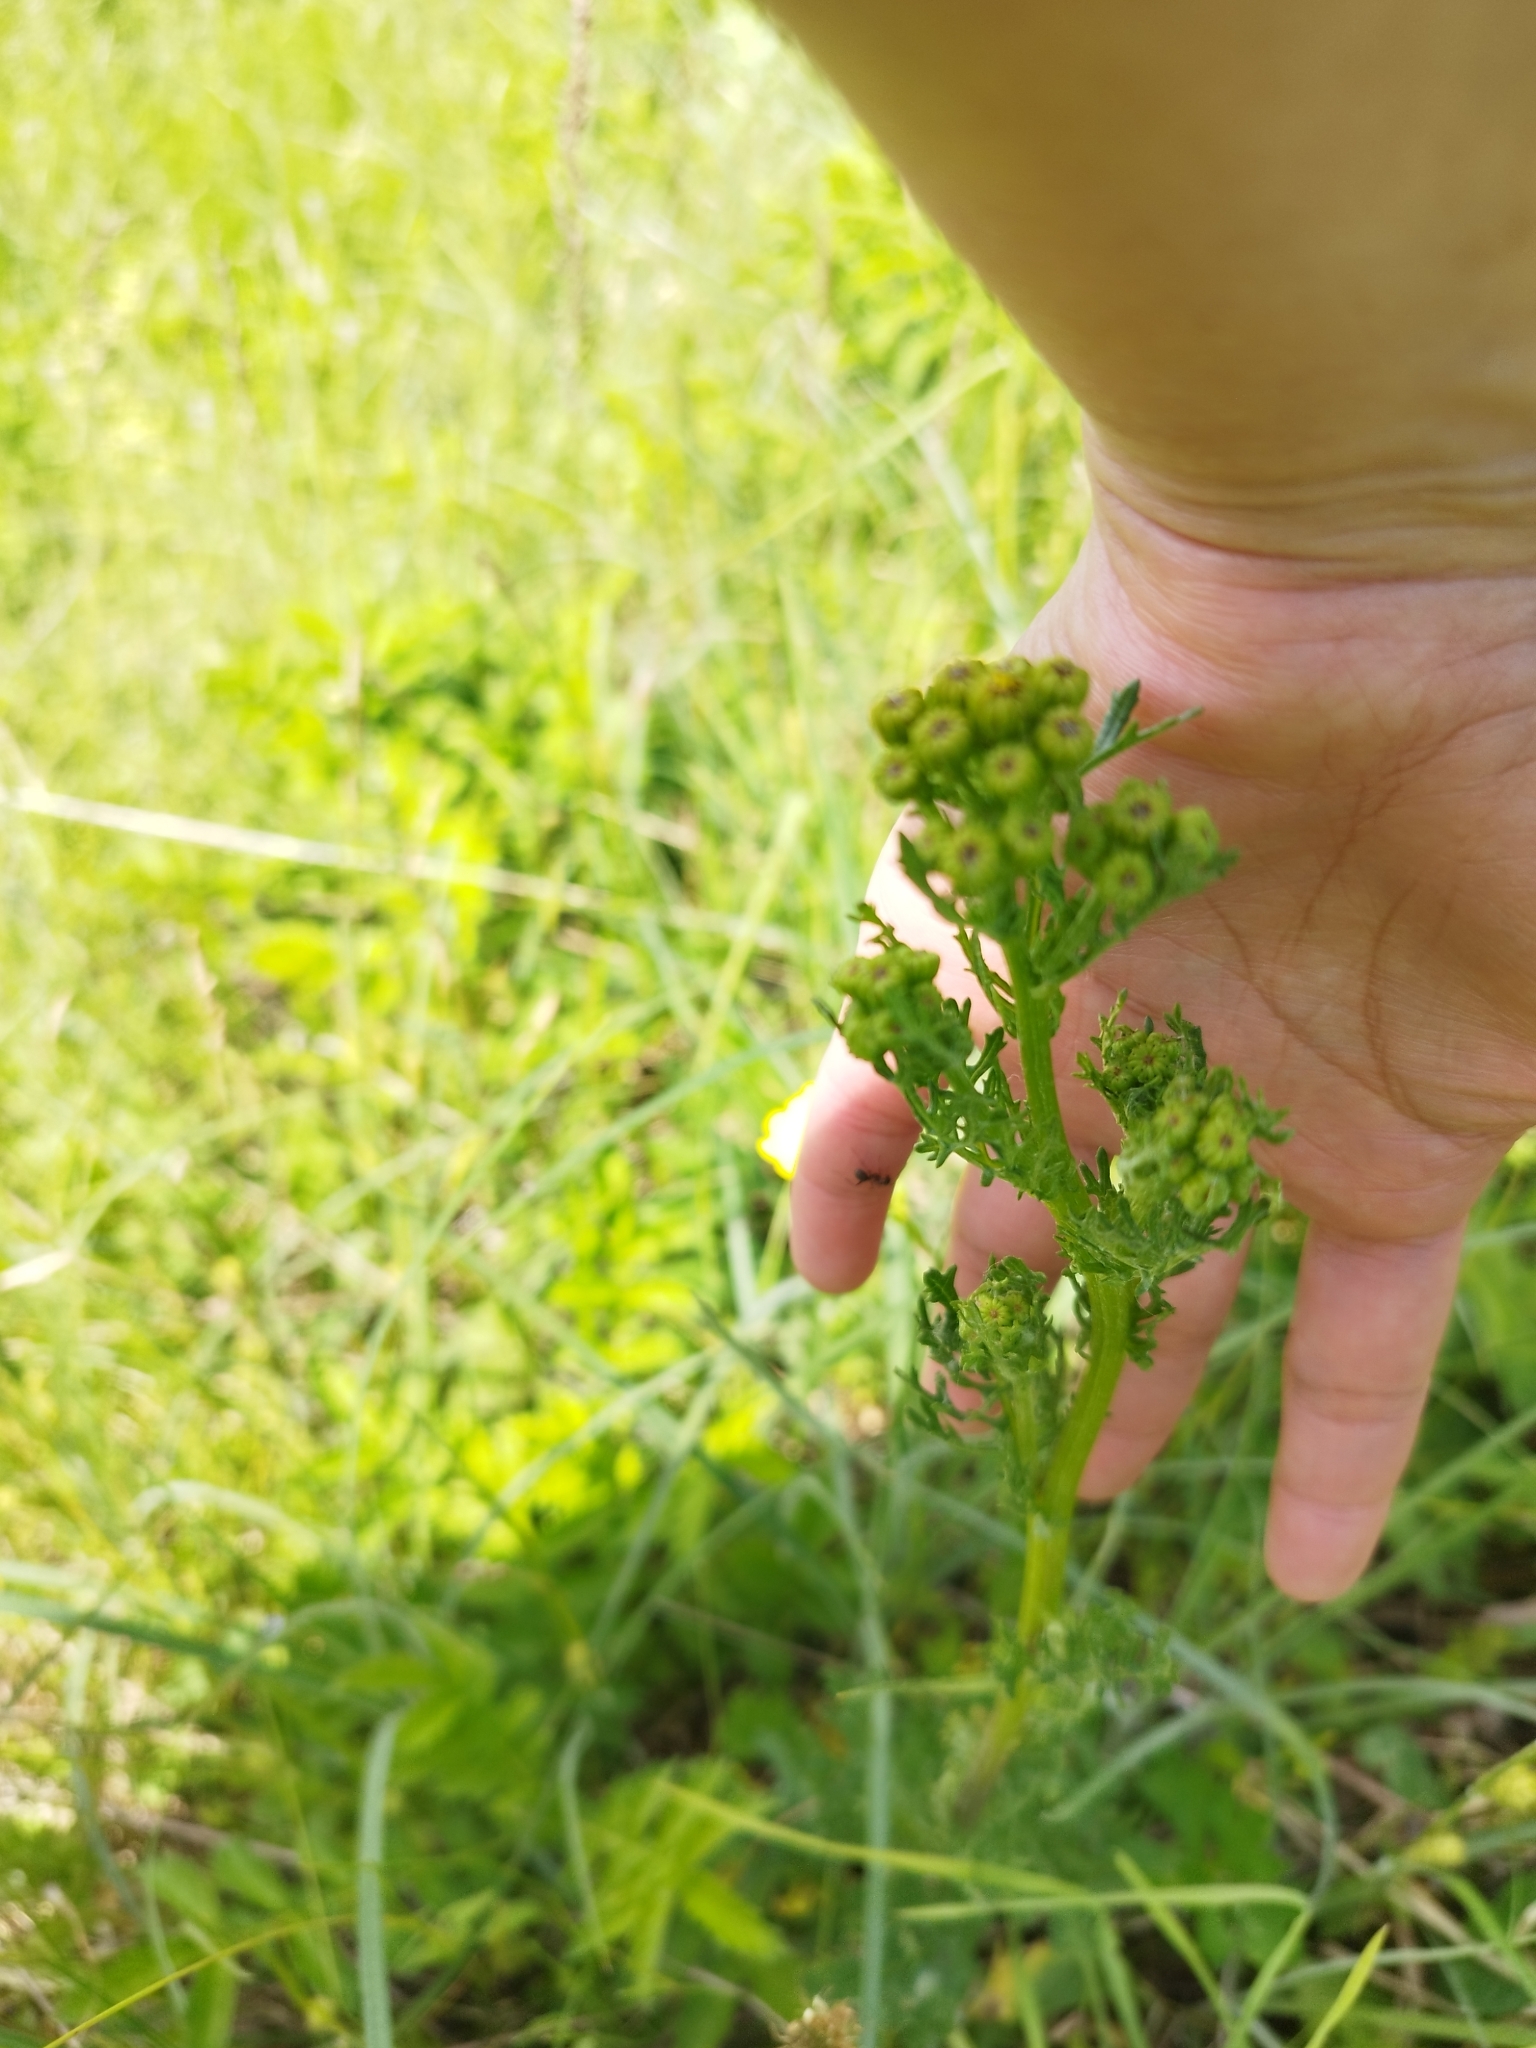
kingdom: Plantae
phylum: Tracheophyta
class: Magnoliopsida
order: Asterales
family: Asteraceae
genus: Jacobaea
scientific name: Jacobaea vulgaris
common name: Stinking willie
